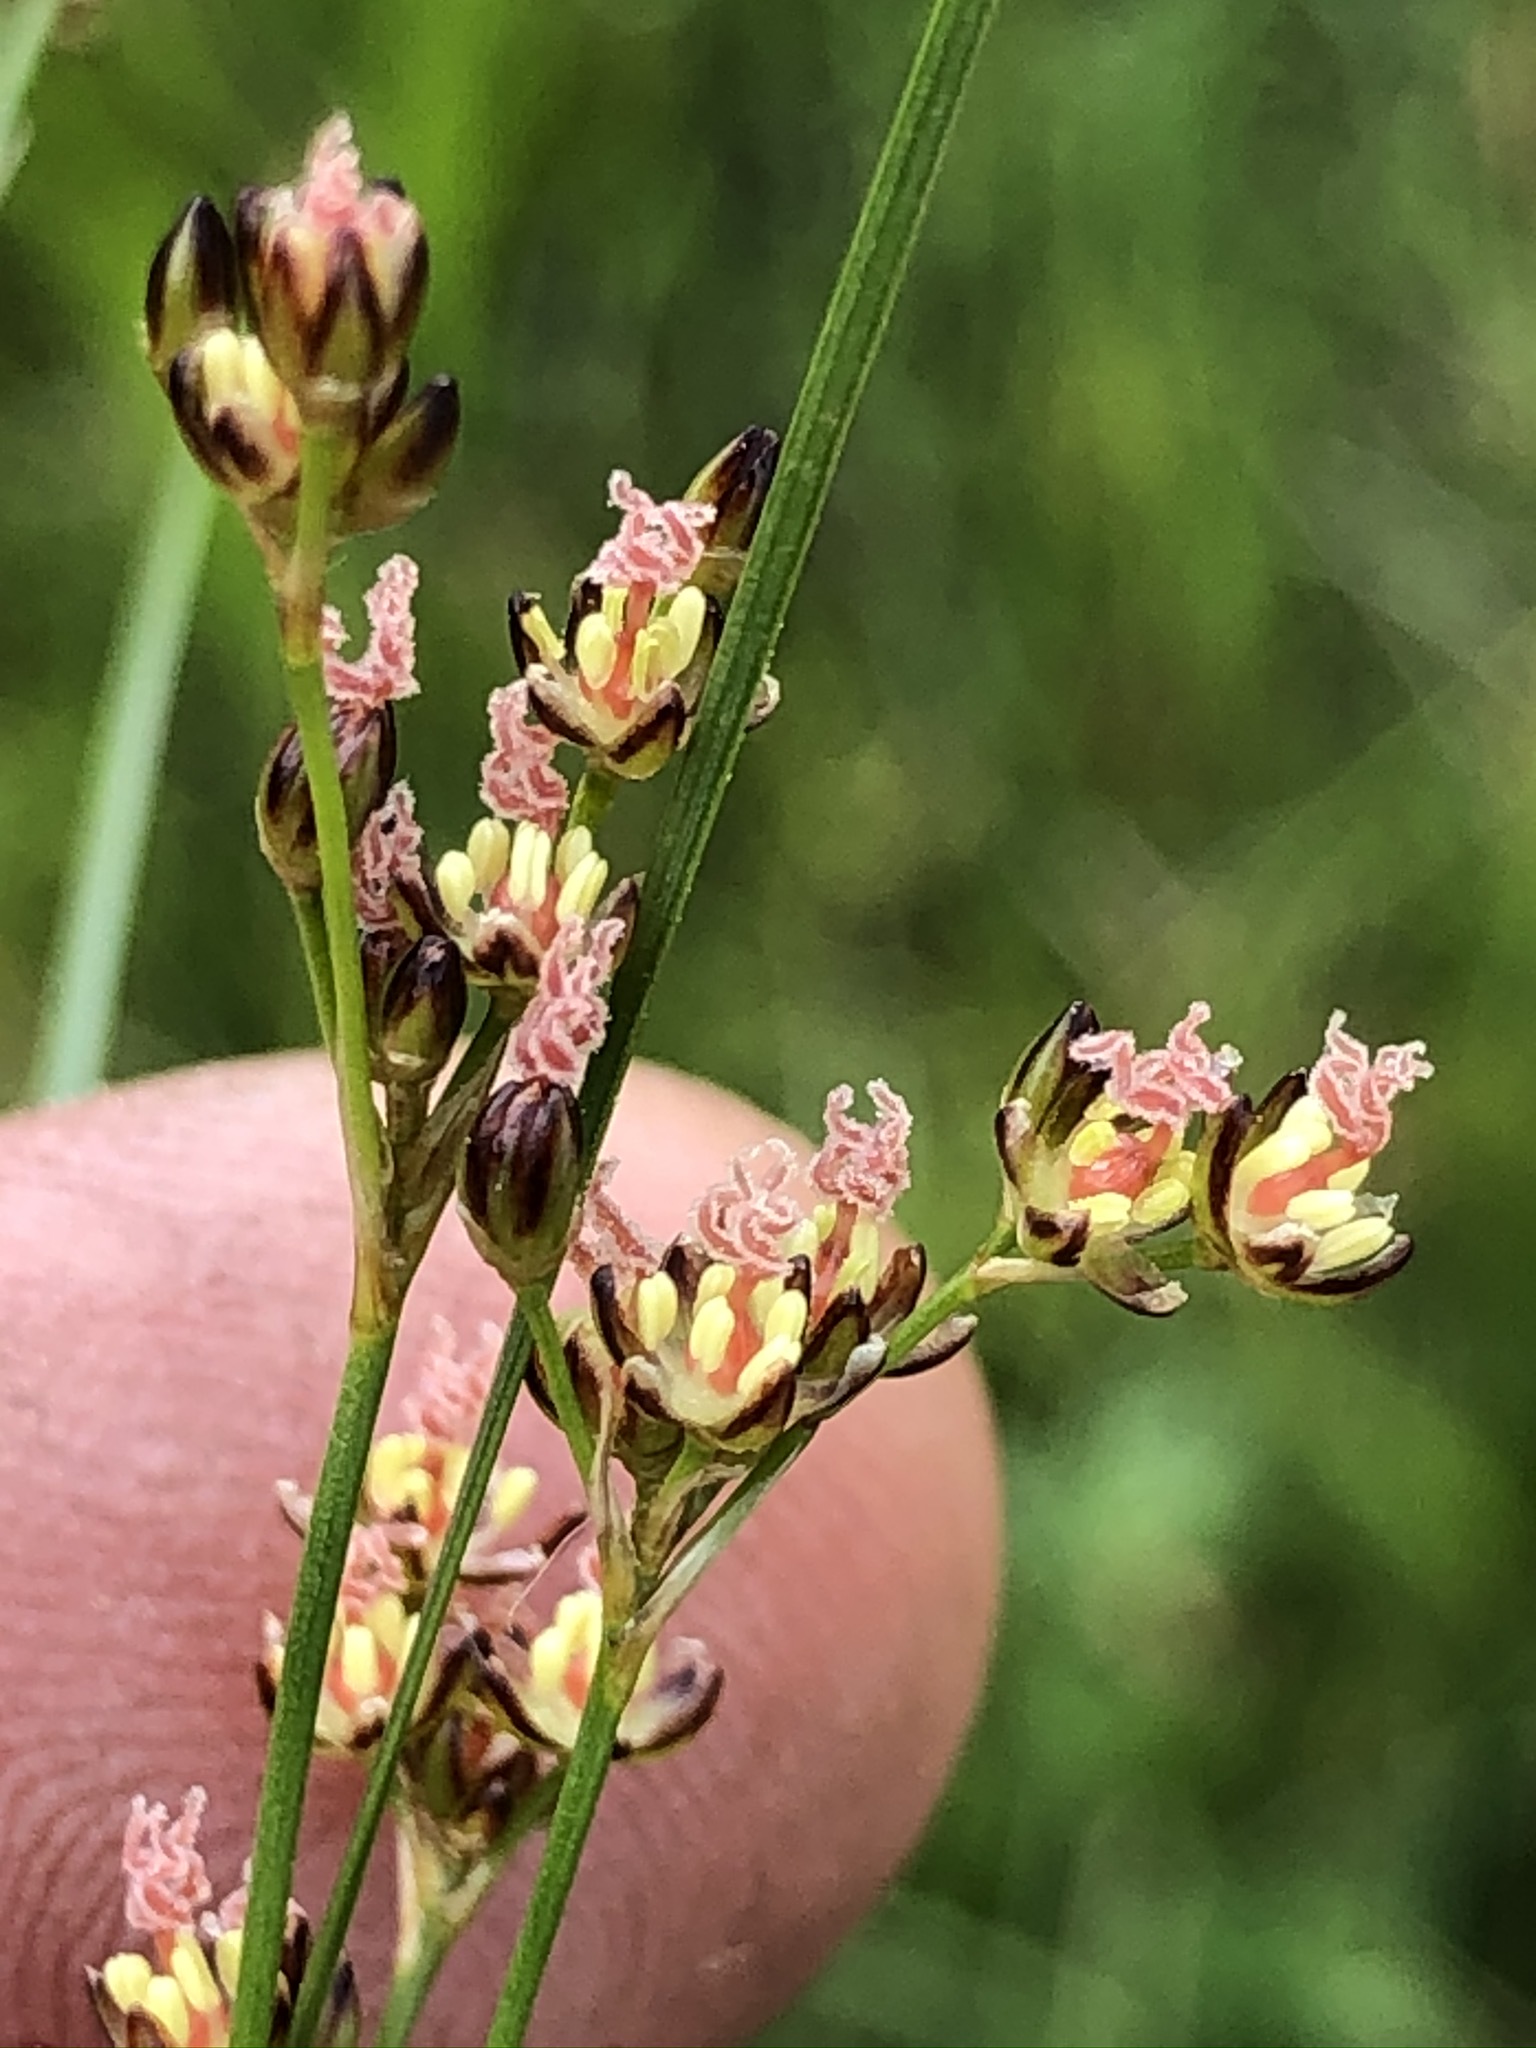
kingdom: Plantae
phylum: Tracheophyta
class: Liliopsida
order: Poales
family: Juncaceae
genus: Juncus
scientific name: Juncus compressus
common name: Round-fruited rush
